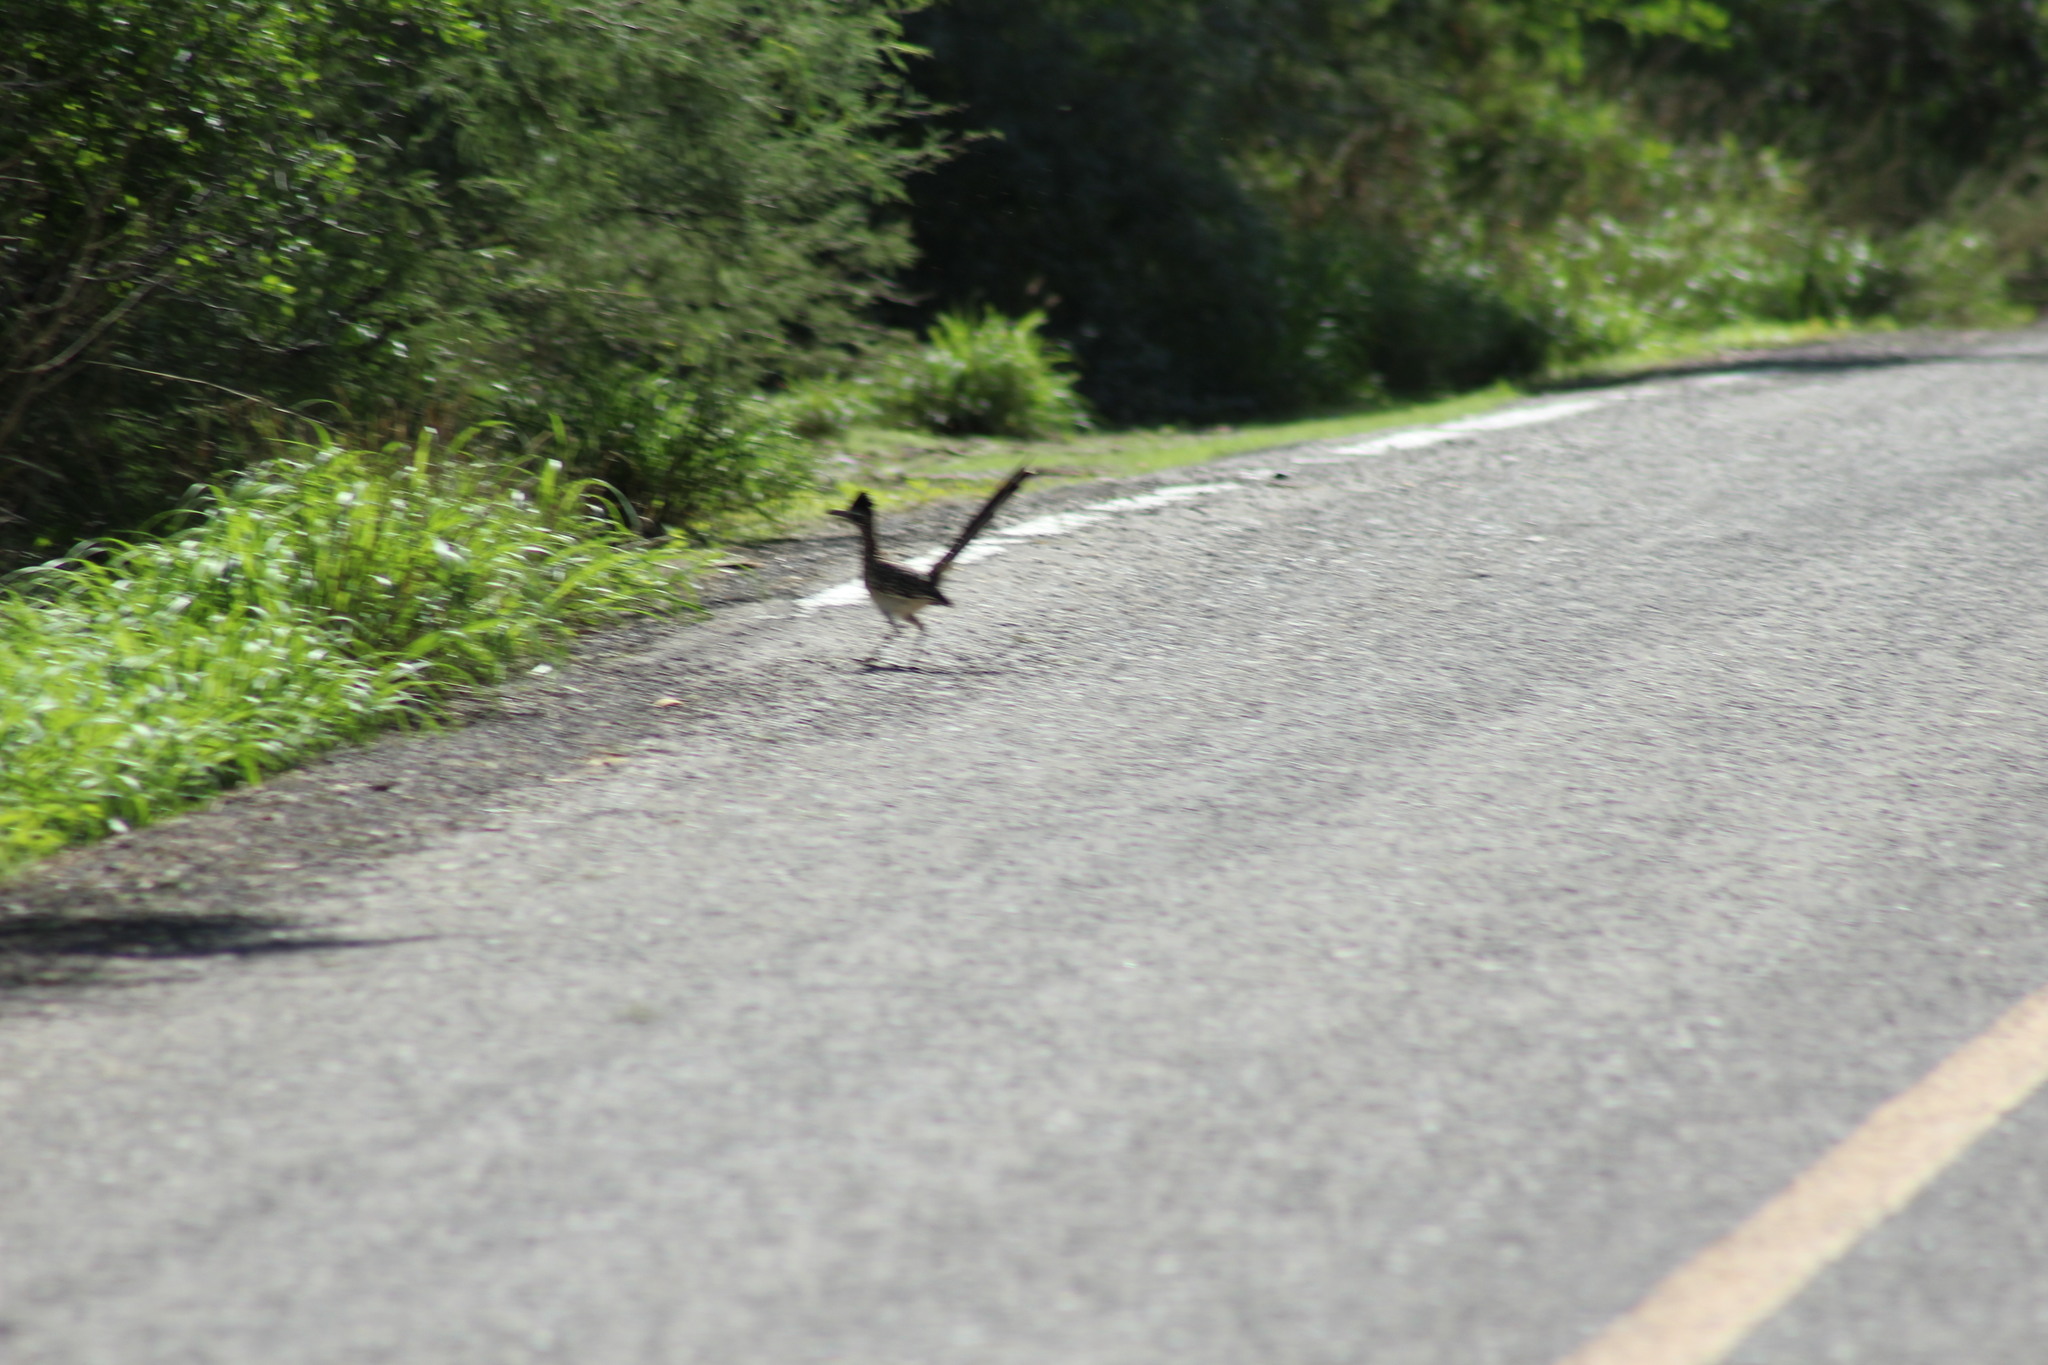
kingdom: Animalia
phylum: Chordata
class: Aves
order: Cuculiformes
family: Cuculidae
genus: Geococcyx
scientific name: Geococcyx californianus
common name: Greater roadrunner
